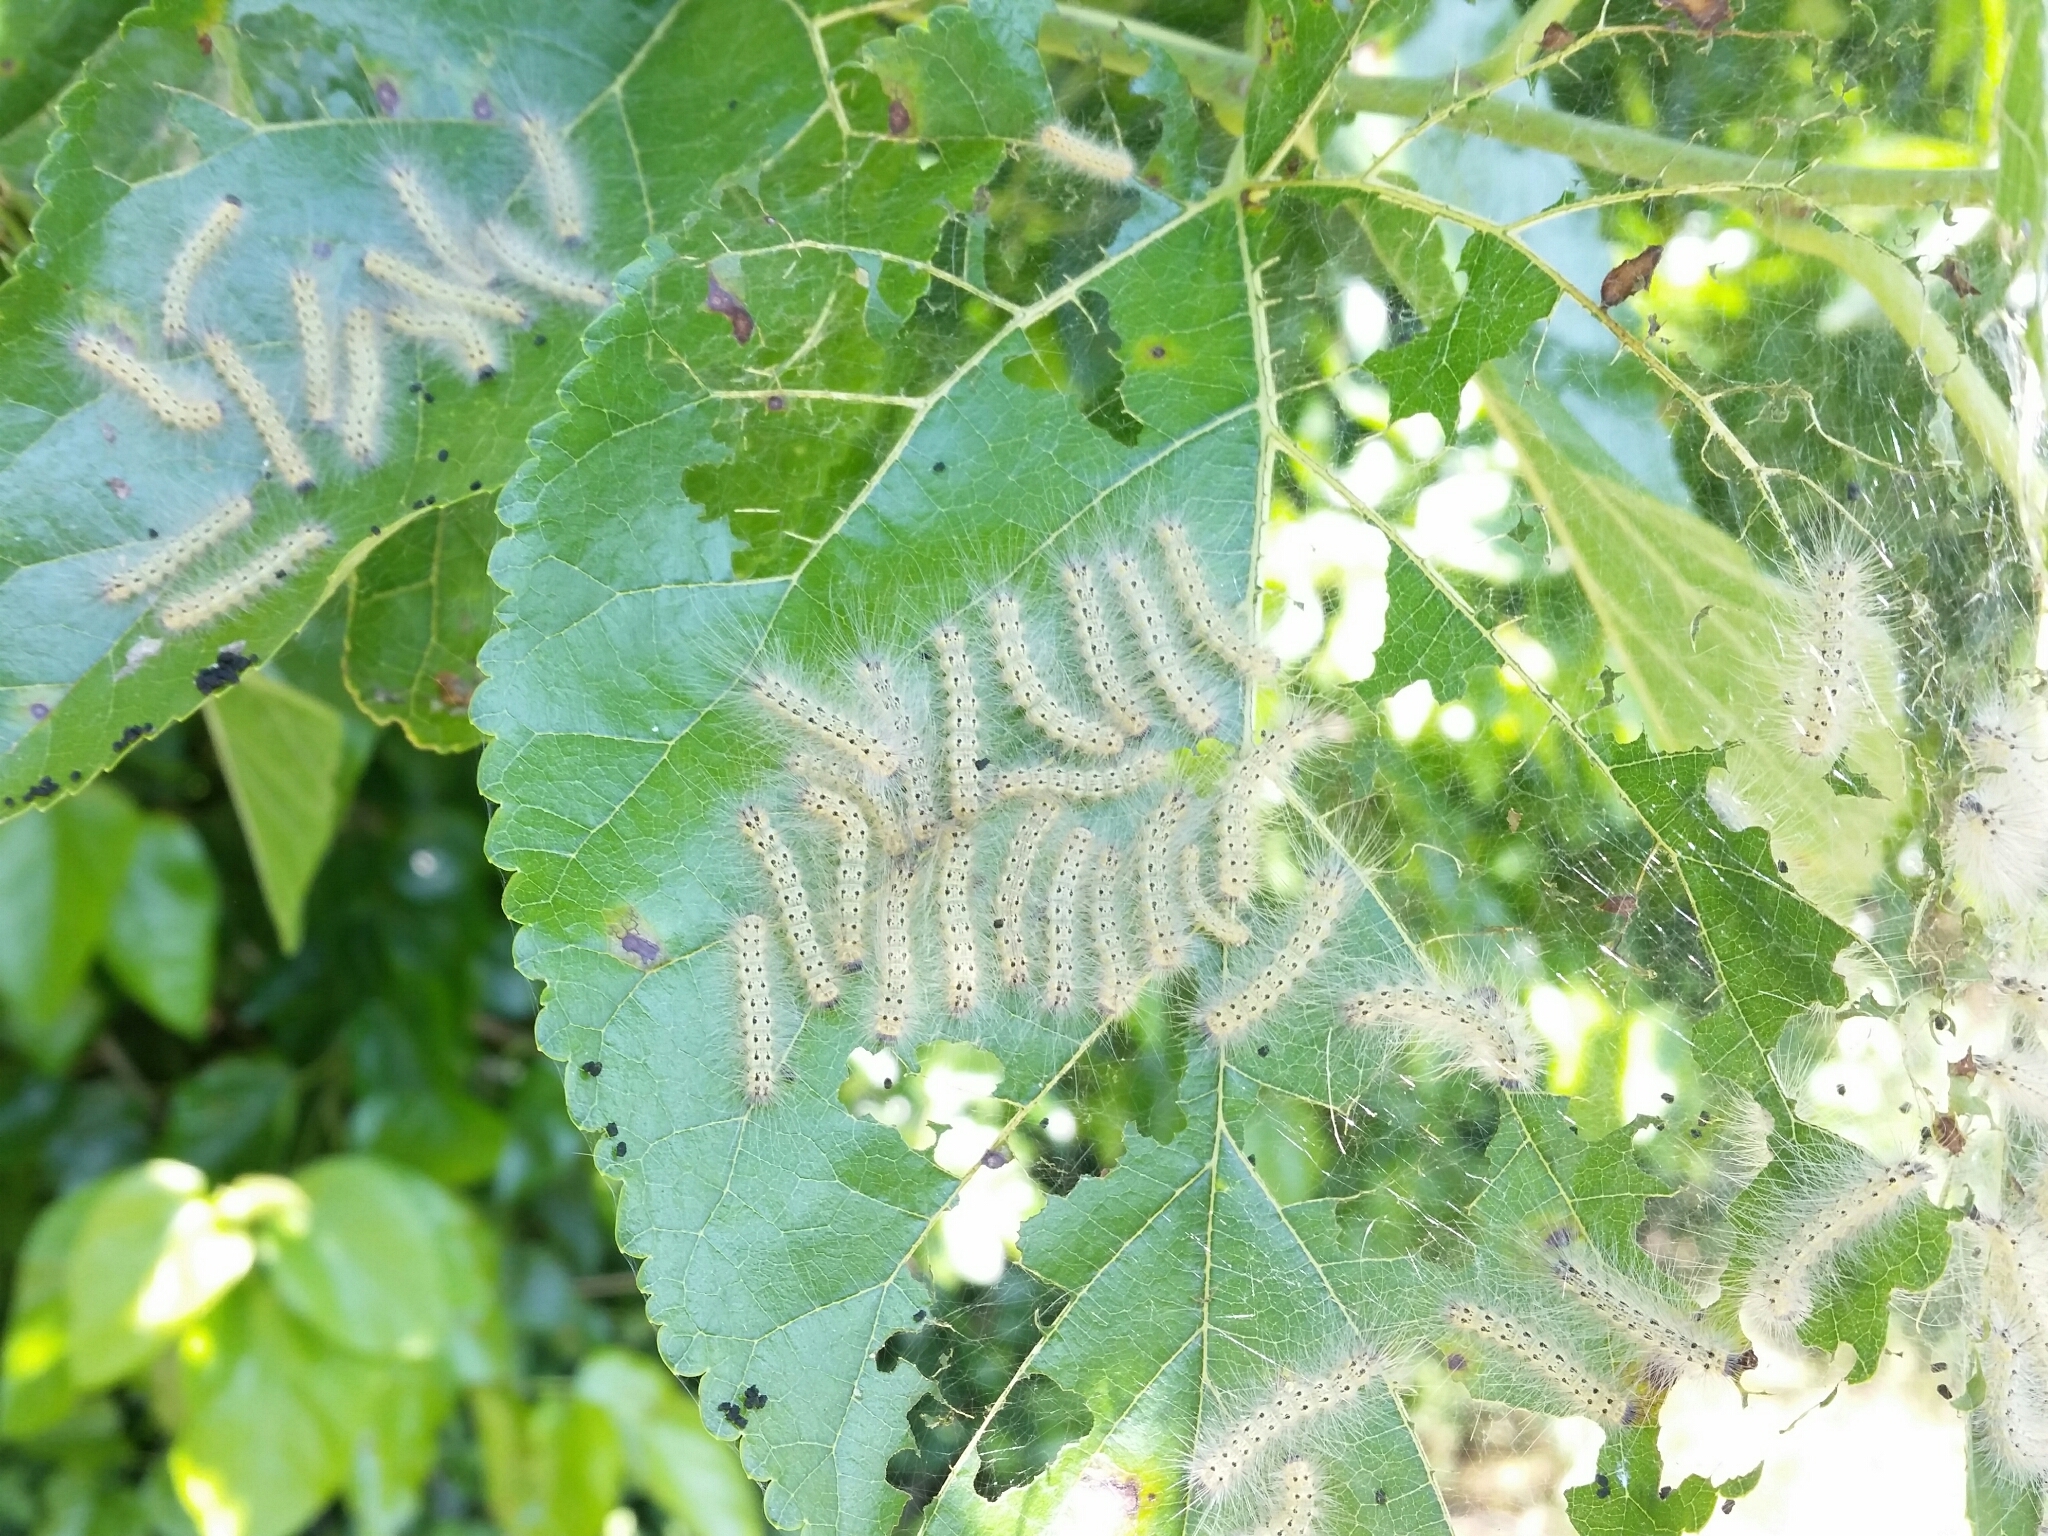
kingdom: Animalia
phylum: Arthropoda
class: Insecta
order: Lepidoptera
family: Erebidae
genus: Hyphantria
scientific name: Hyphantria cunea
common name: American white moth
